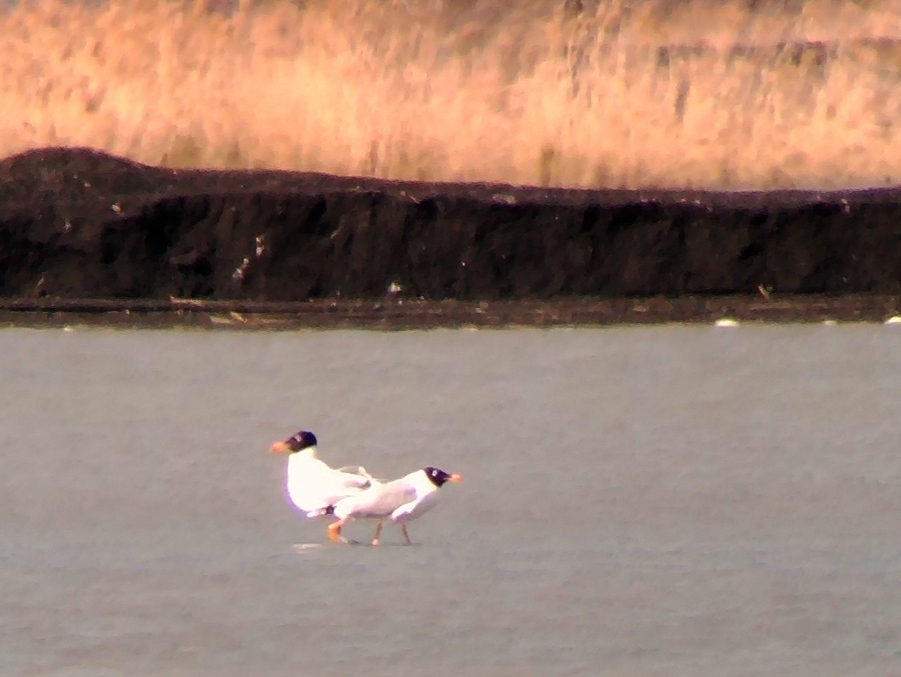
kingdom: Animalia
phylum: Chordata
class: Aves
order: Charadriiformes
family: Laridae
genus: Ichthyaetus
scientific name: Ichthyaetus ichthyaetus
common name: Pallas's gull
